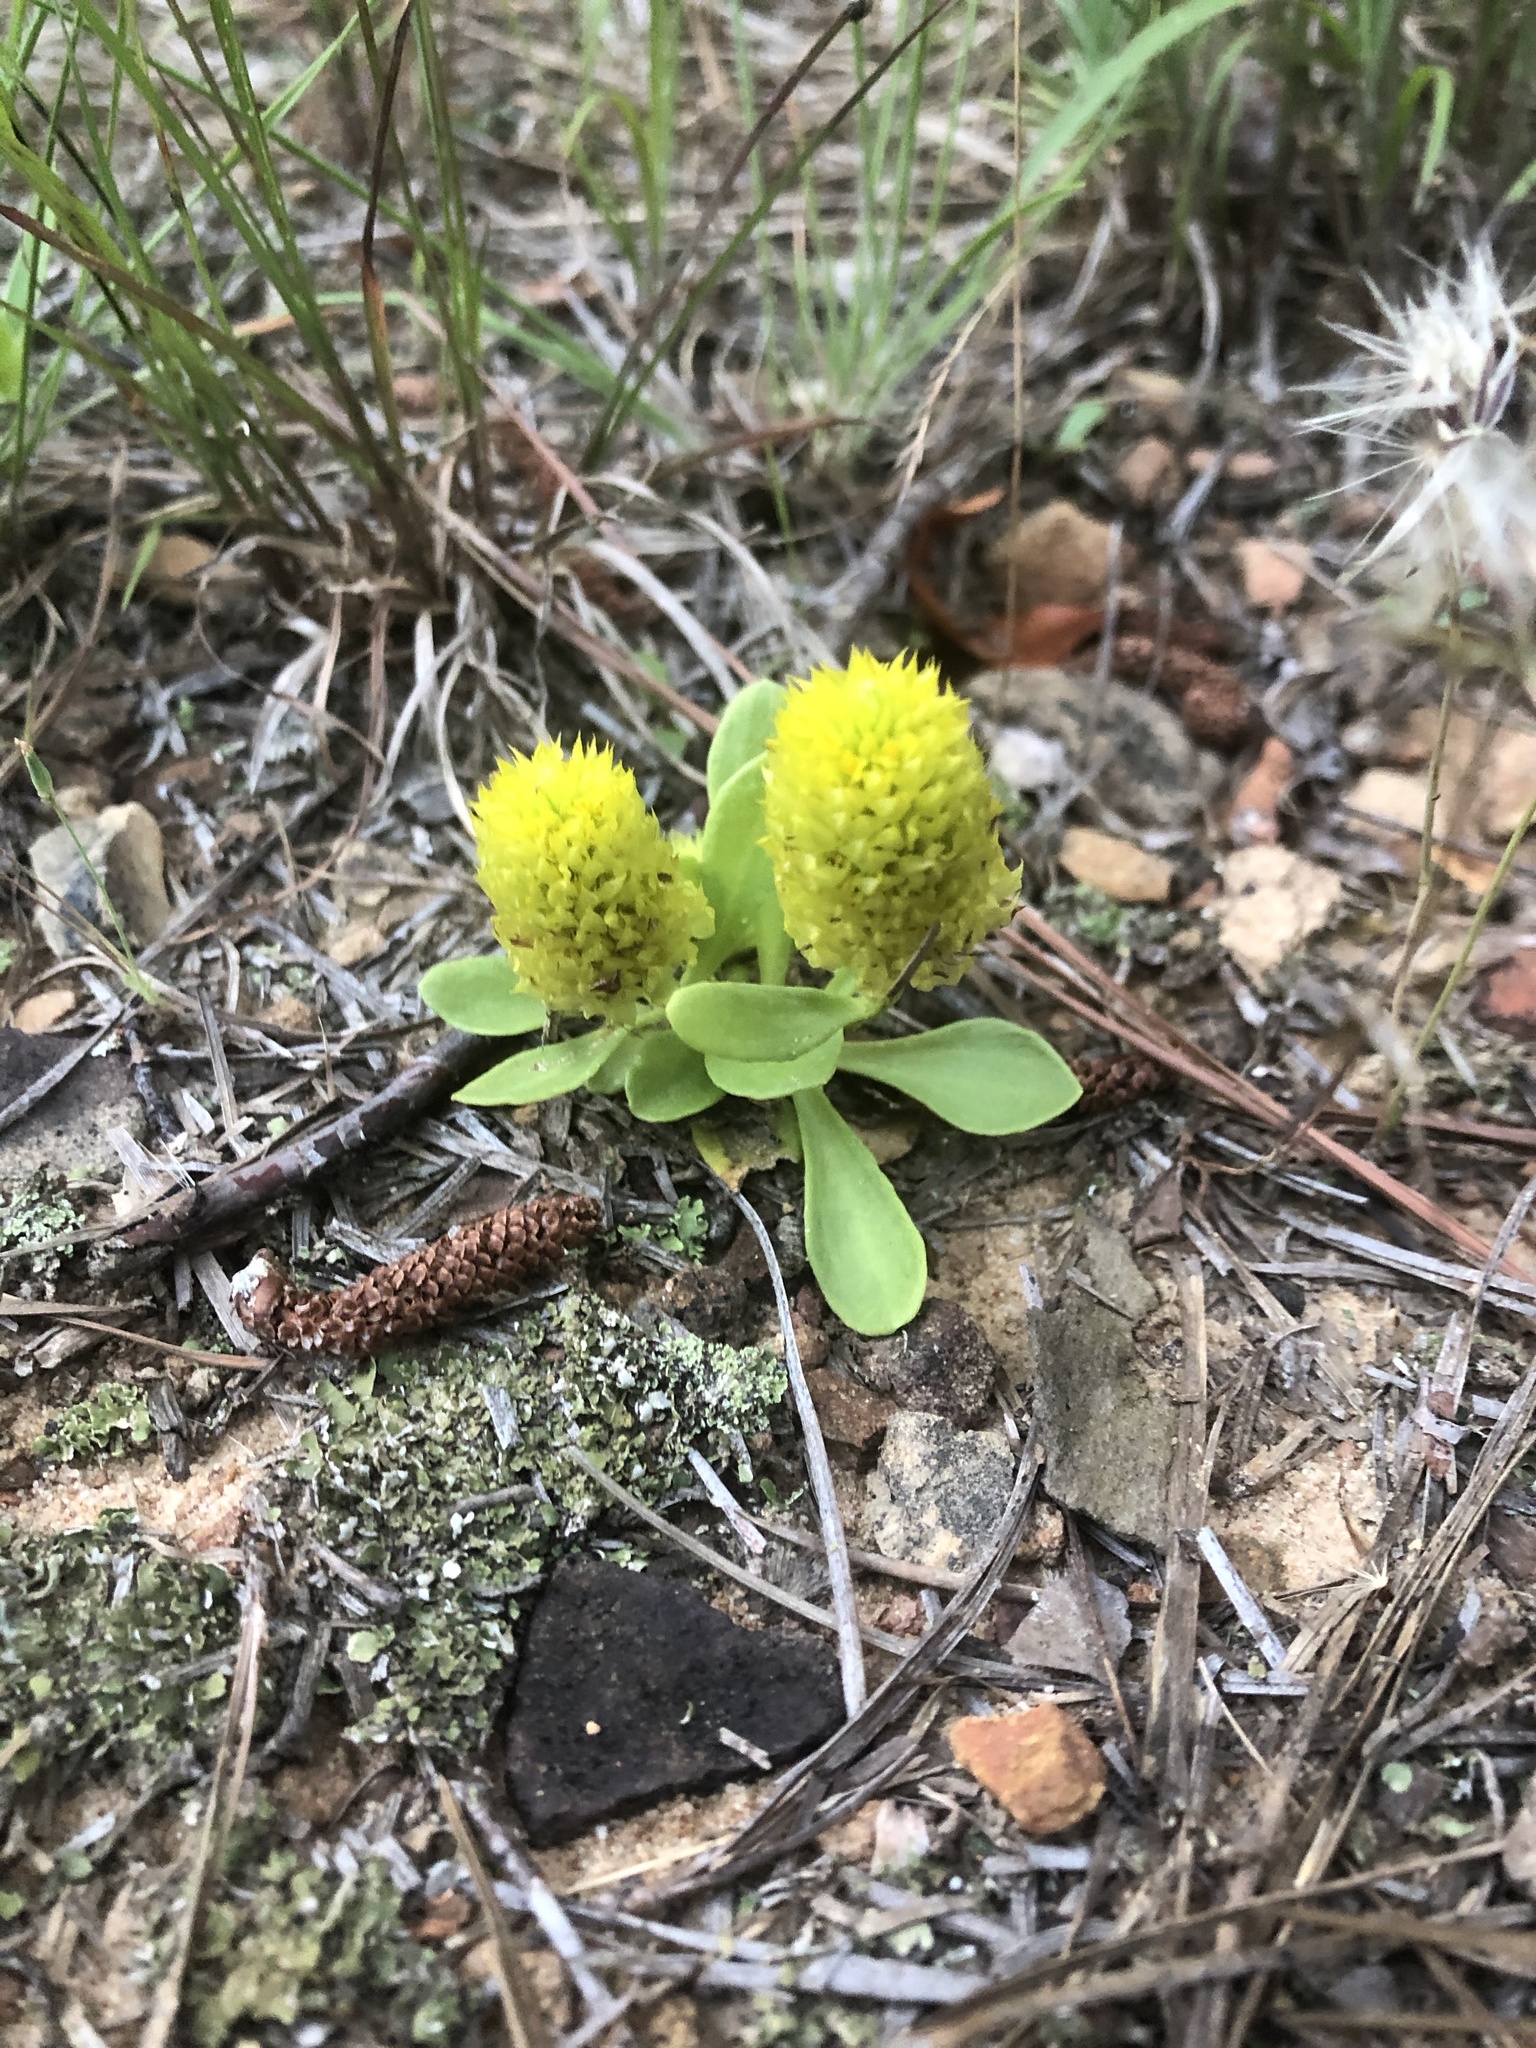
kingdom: Plantae
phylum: Tracheophyta
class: Magnoliopsida
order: Fabales
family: Polygalaceae
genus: Polygala
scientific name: Polygala nana
